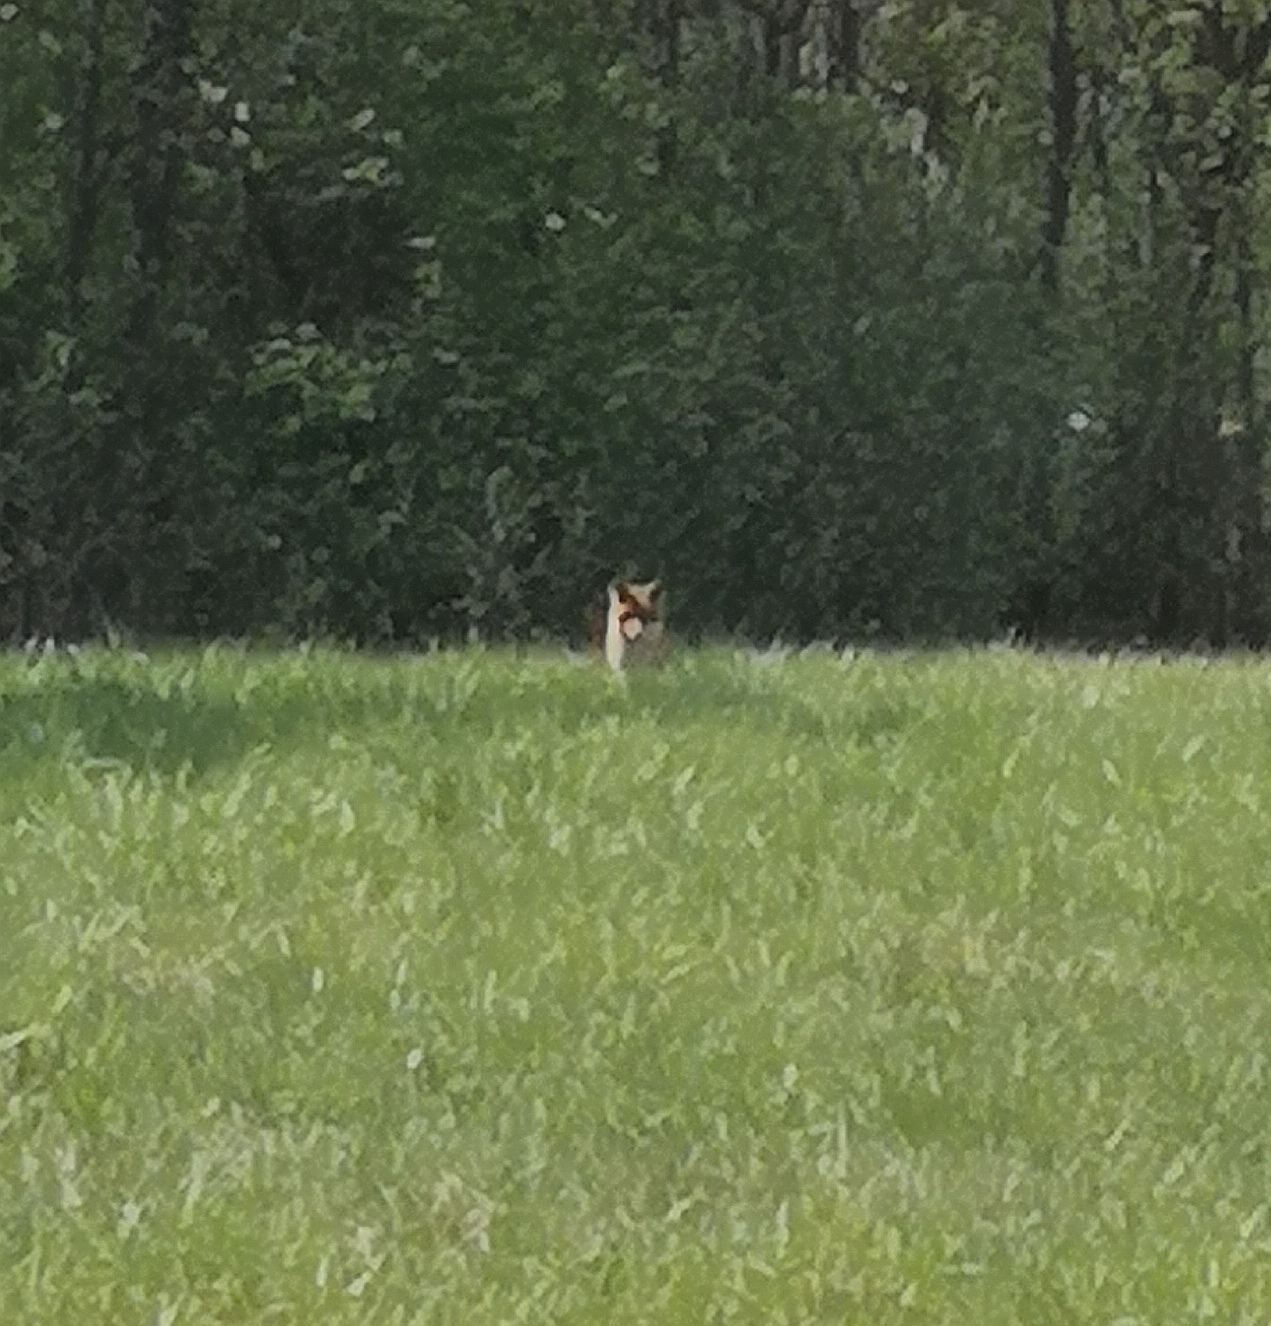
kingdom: Animalia
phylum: Chordata
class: Mammalia
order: Carnivora
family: Canidae
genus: Vulpes
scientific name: Vulpes vulpes
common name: Red fox
